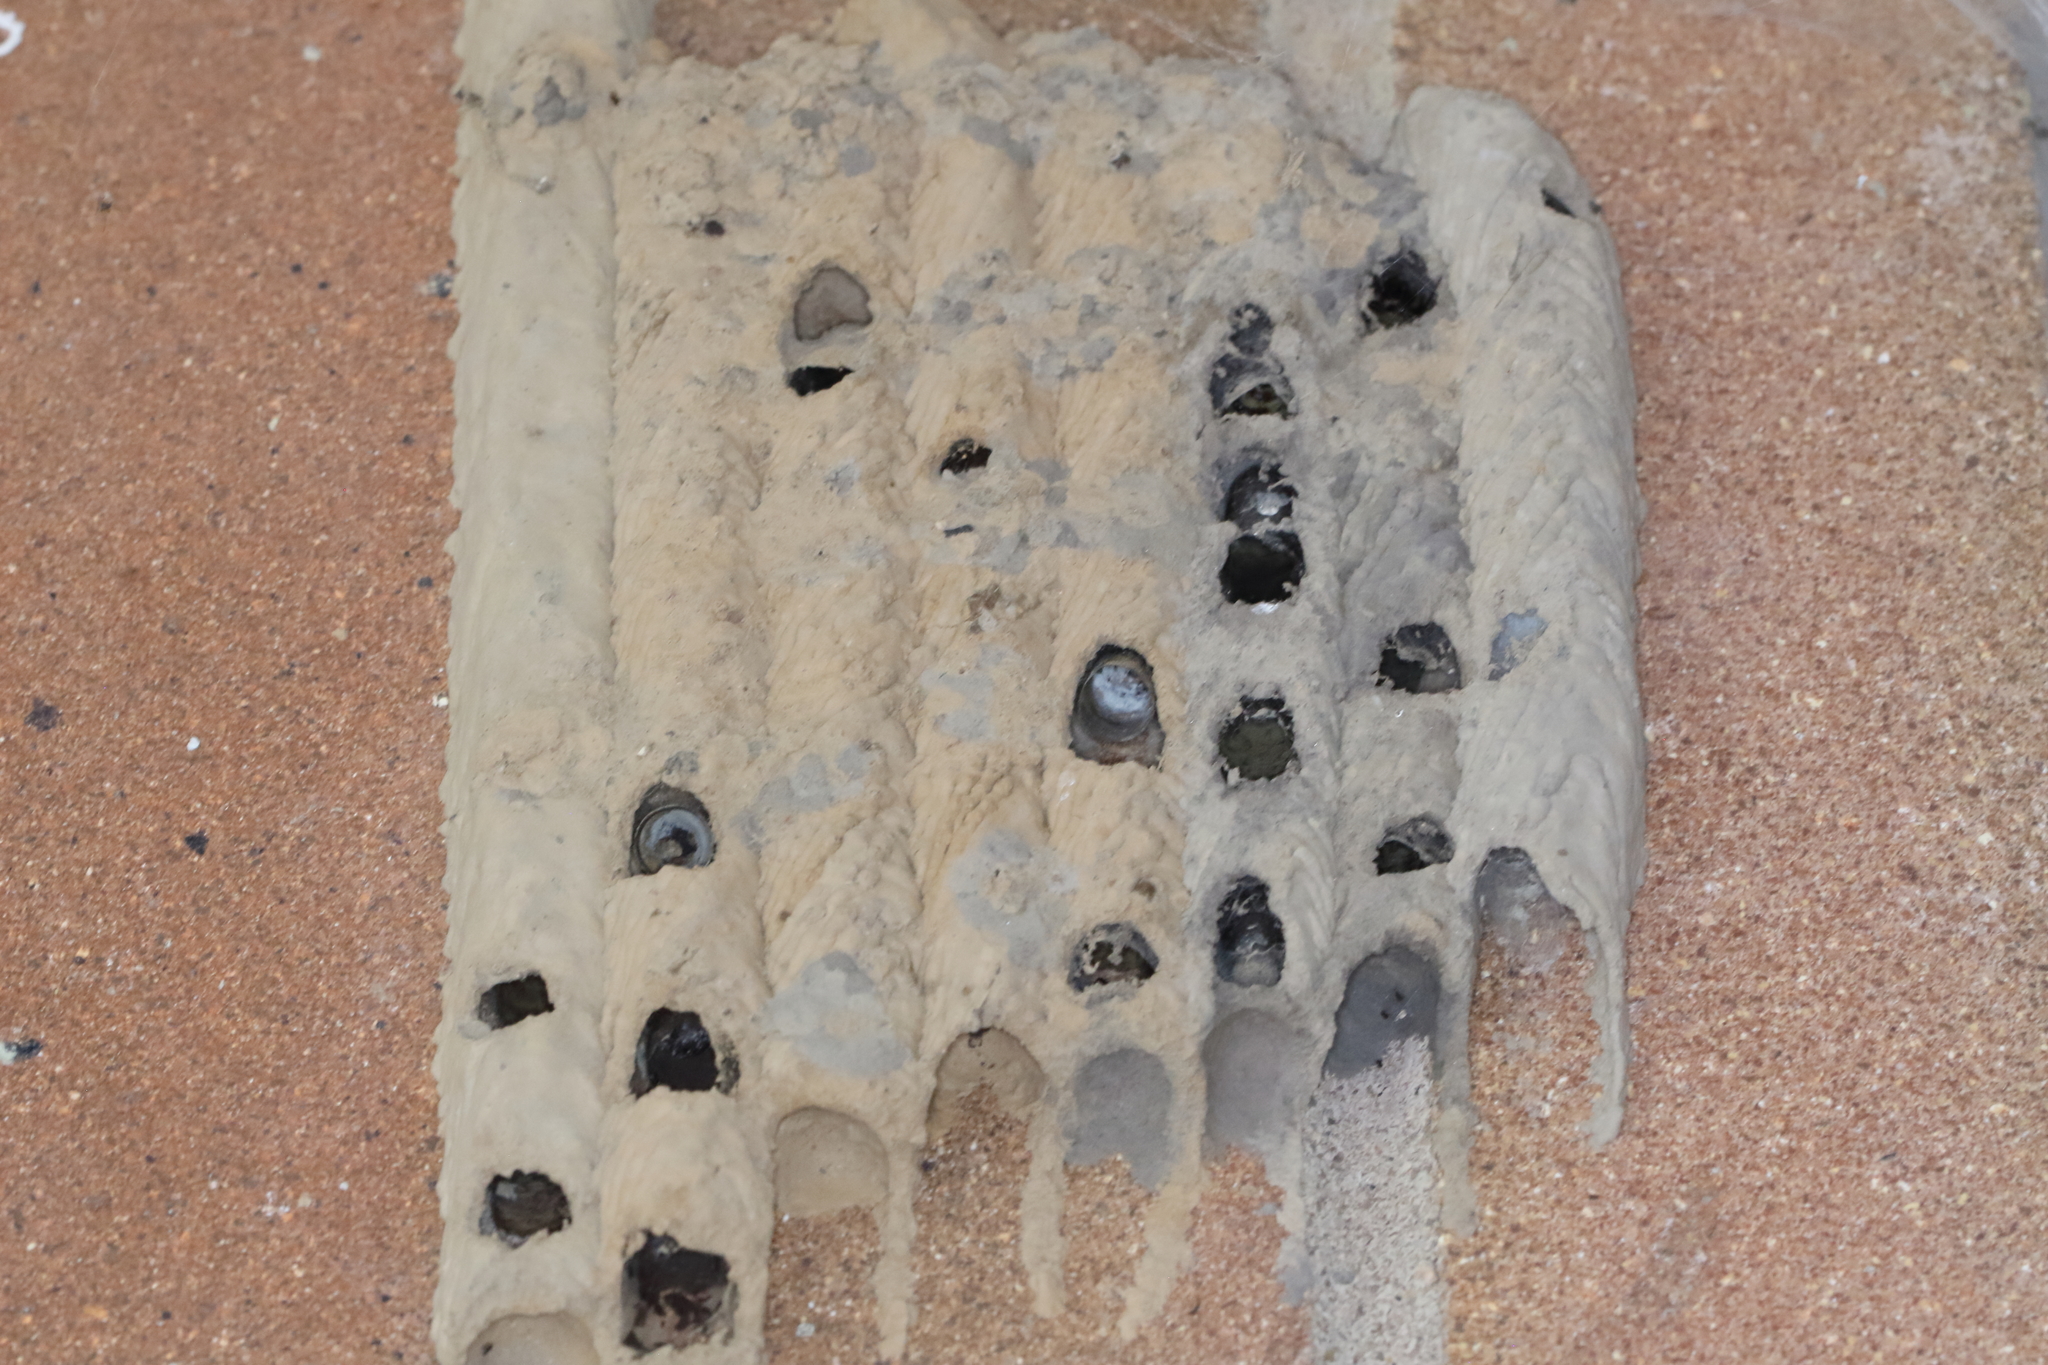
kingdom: Animalia
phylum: Arthropoda
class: Insecta
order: Hymenoptera
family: Crabronidae
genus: Trypoxylon
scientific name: Trypoxylon politum
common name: Organ-pipe mud-dauber wasp
